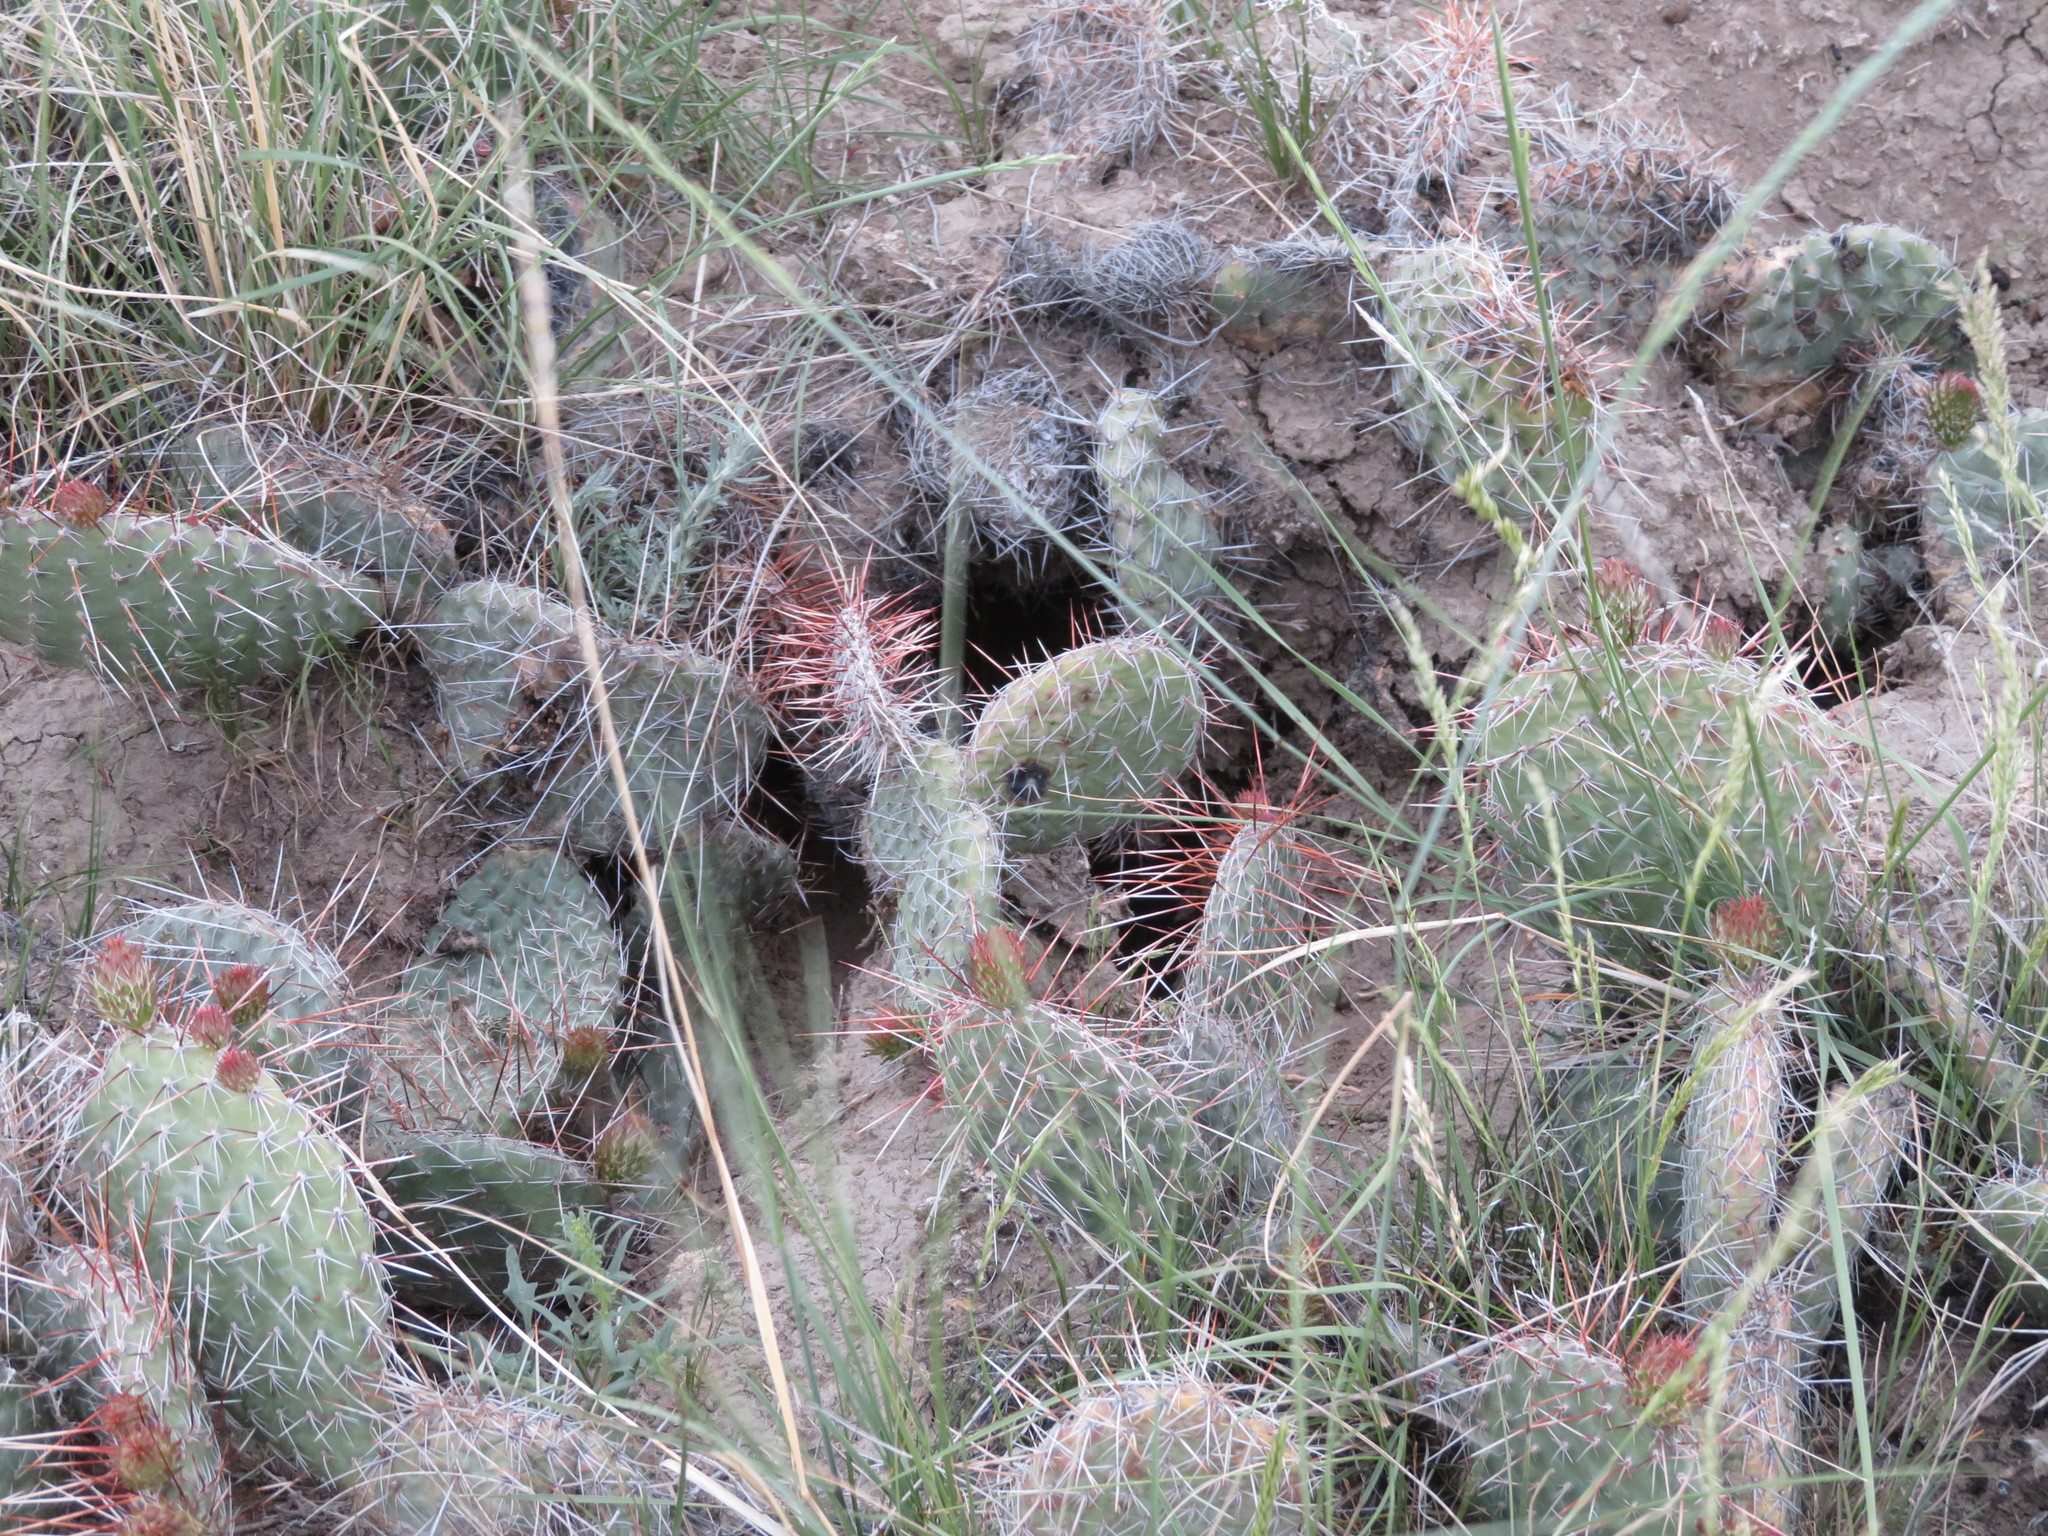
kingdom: Plantae
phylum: Tracheophyta
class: Magnoliopsida
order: Caryophyllales
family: Cactaceae
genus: Opuntia
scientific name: Opuntia polyacantha
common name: Plains prickly-pear
